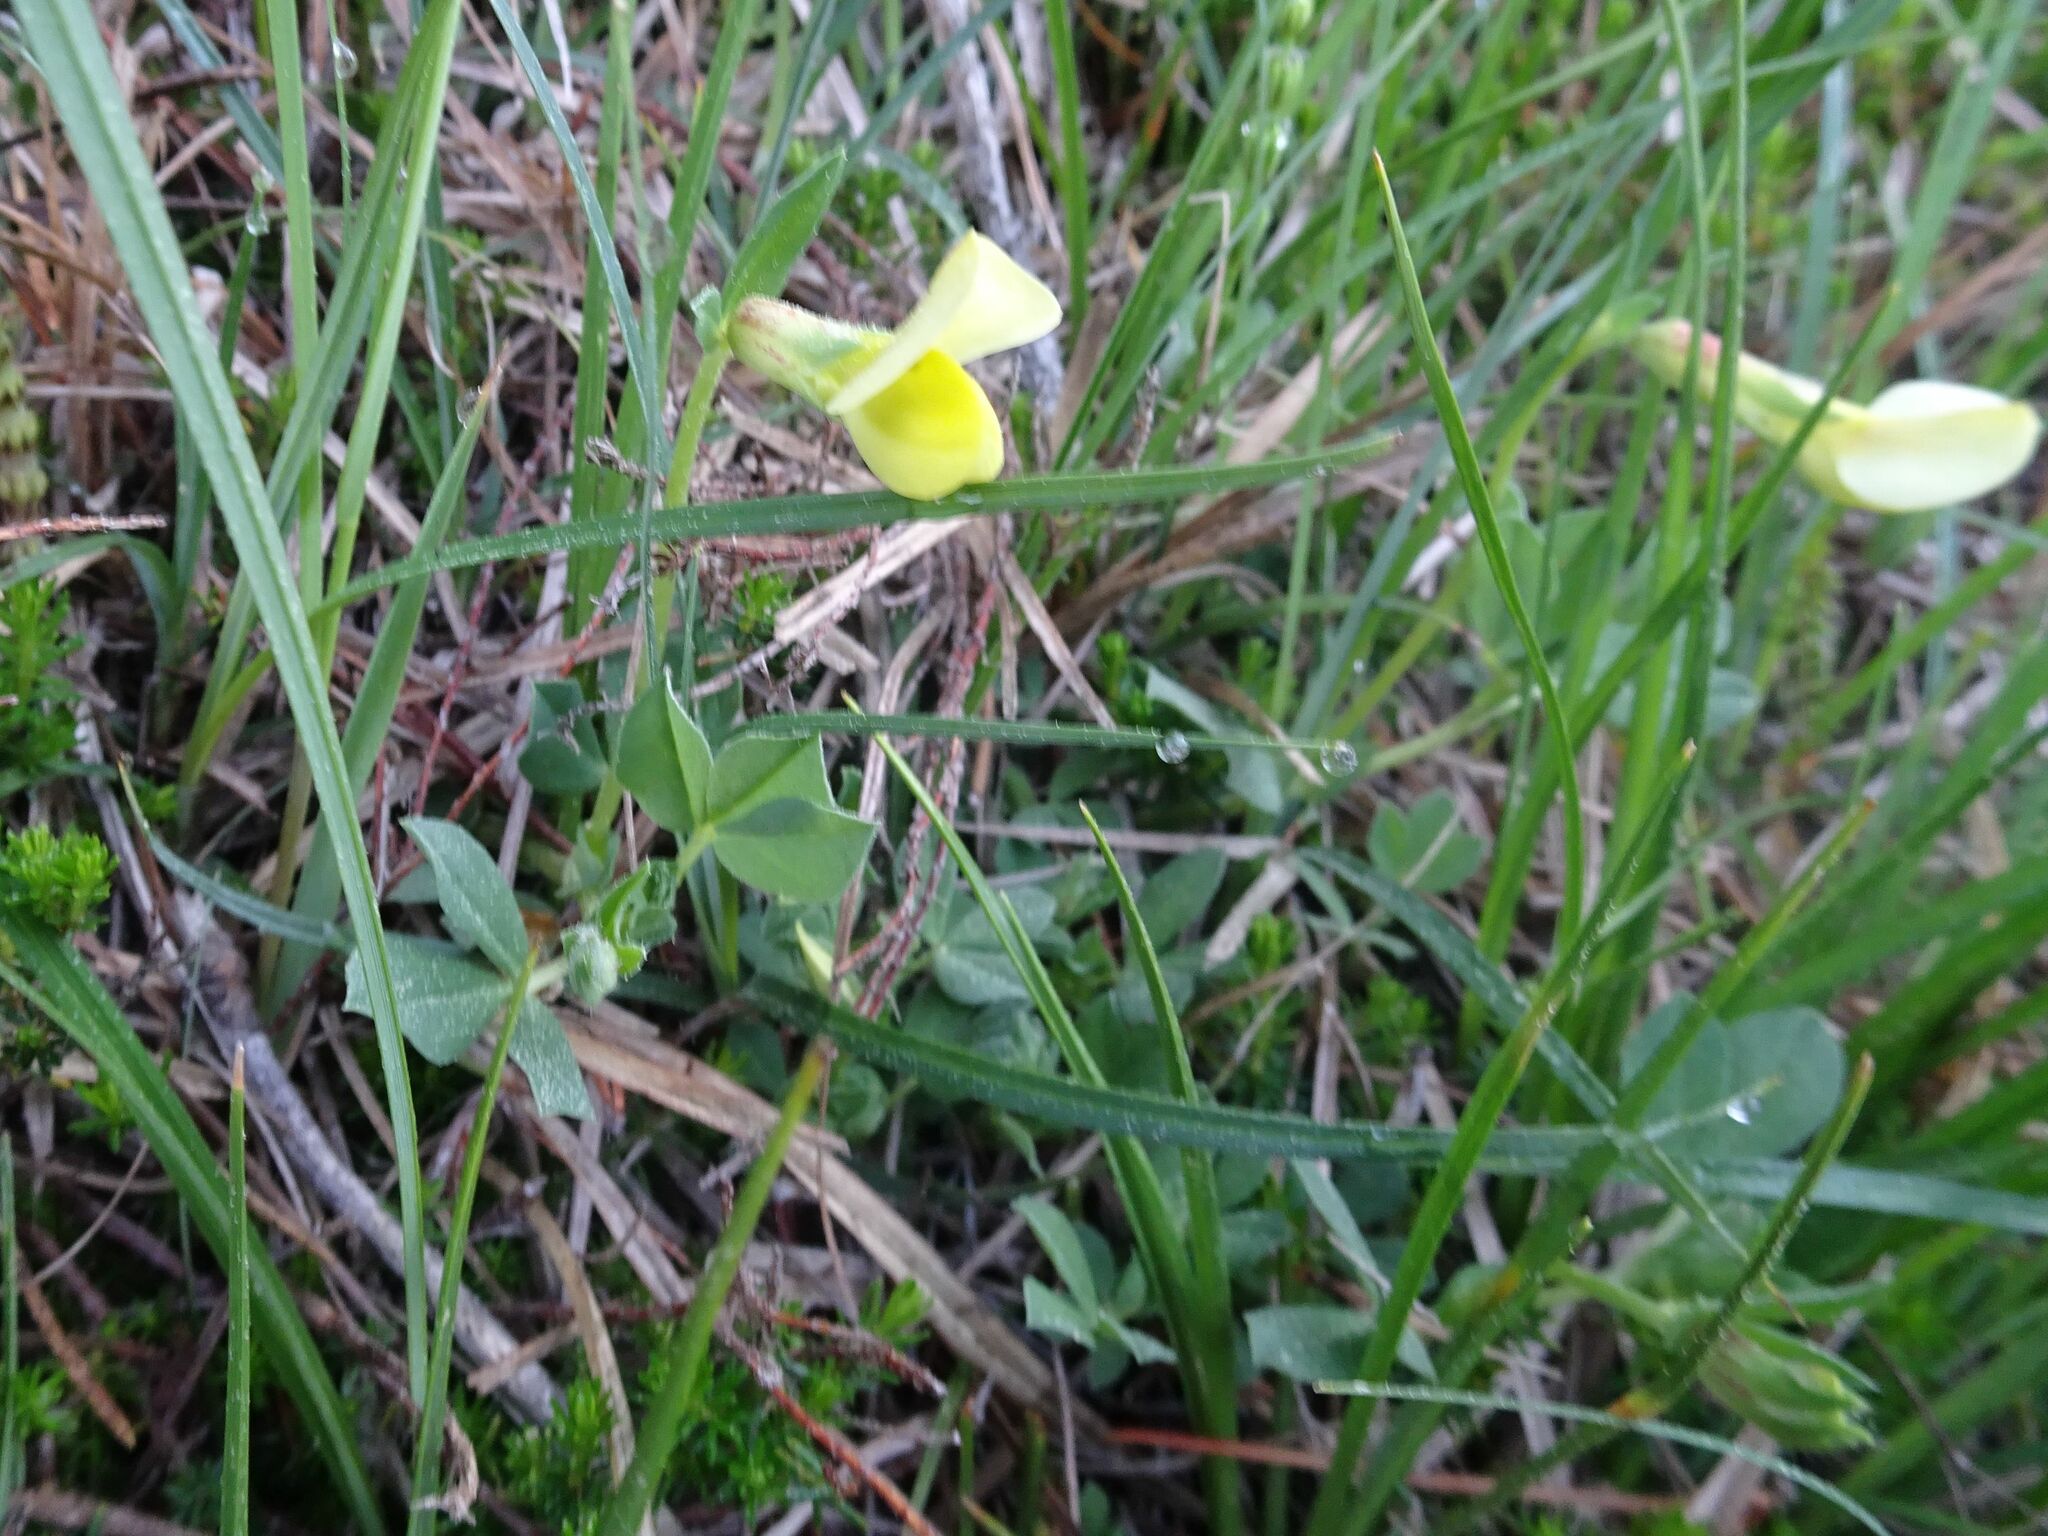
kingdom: Plantae
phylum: Tracheophyta
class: Magnoliopsida
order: Fabales
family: Fabaceae
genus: Lotus
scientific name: Lotus maritimus
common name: Dragon's-teeth
